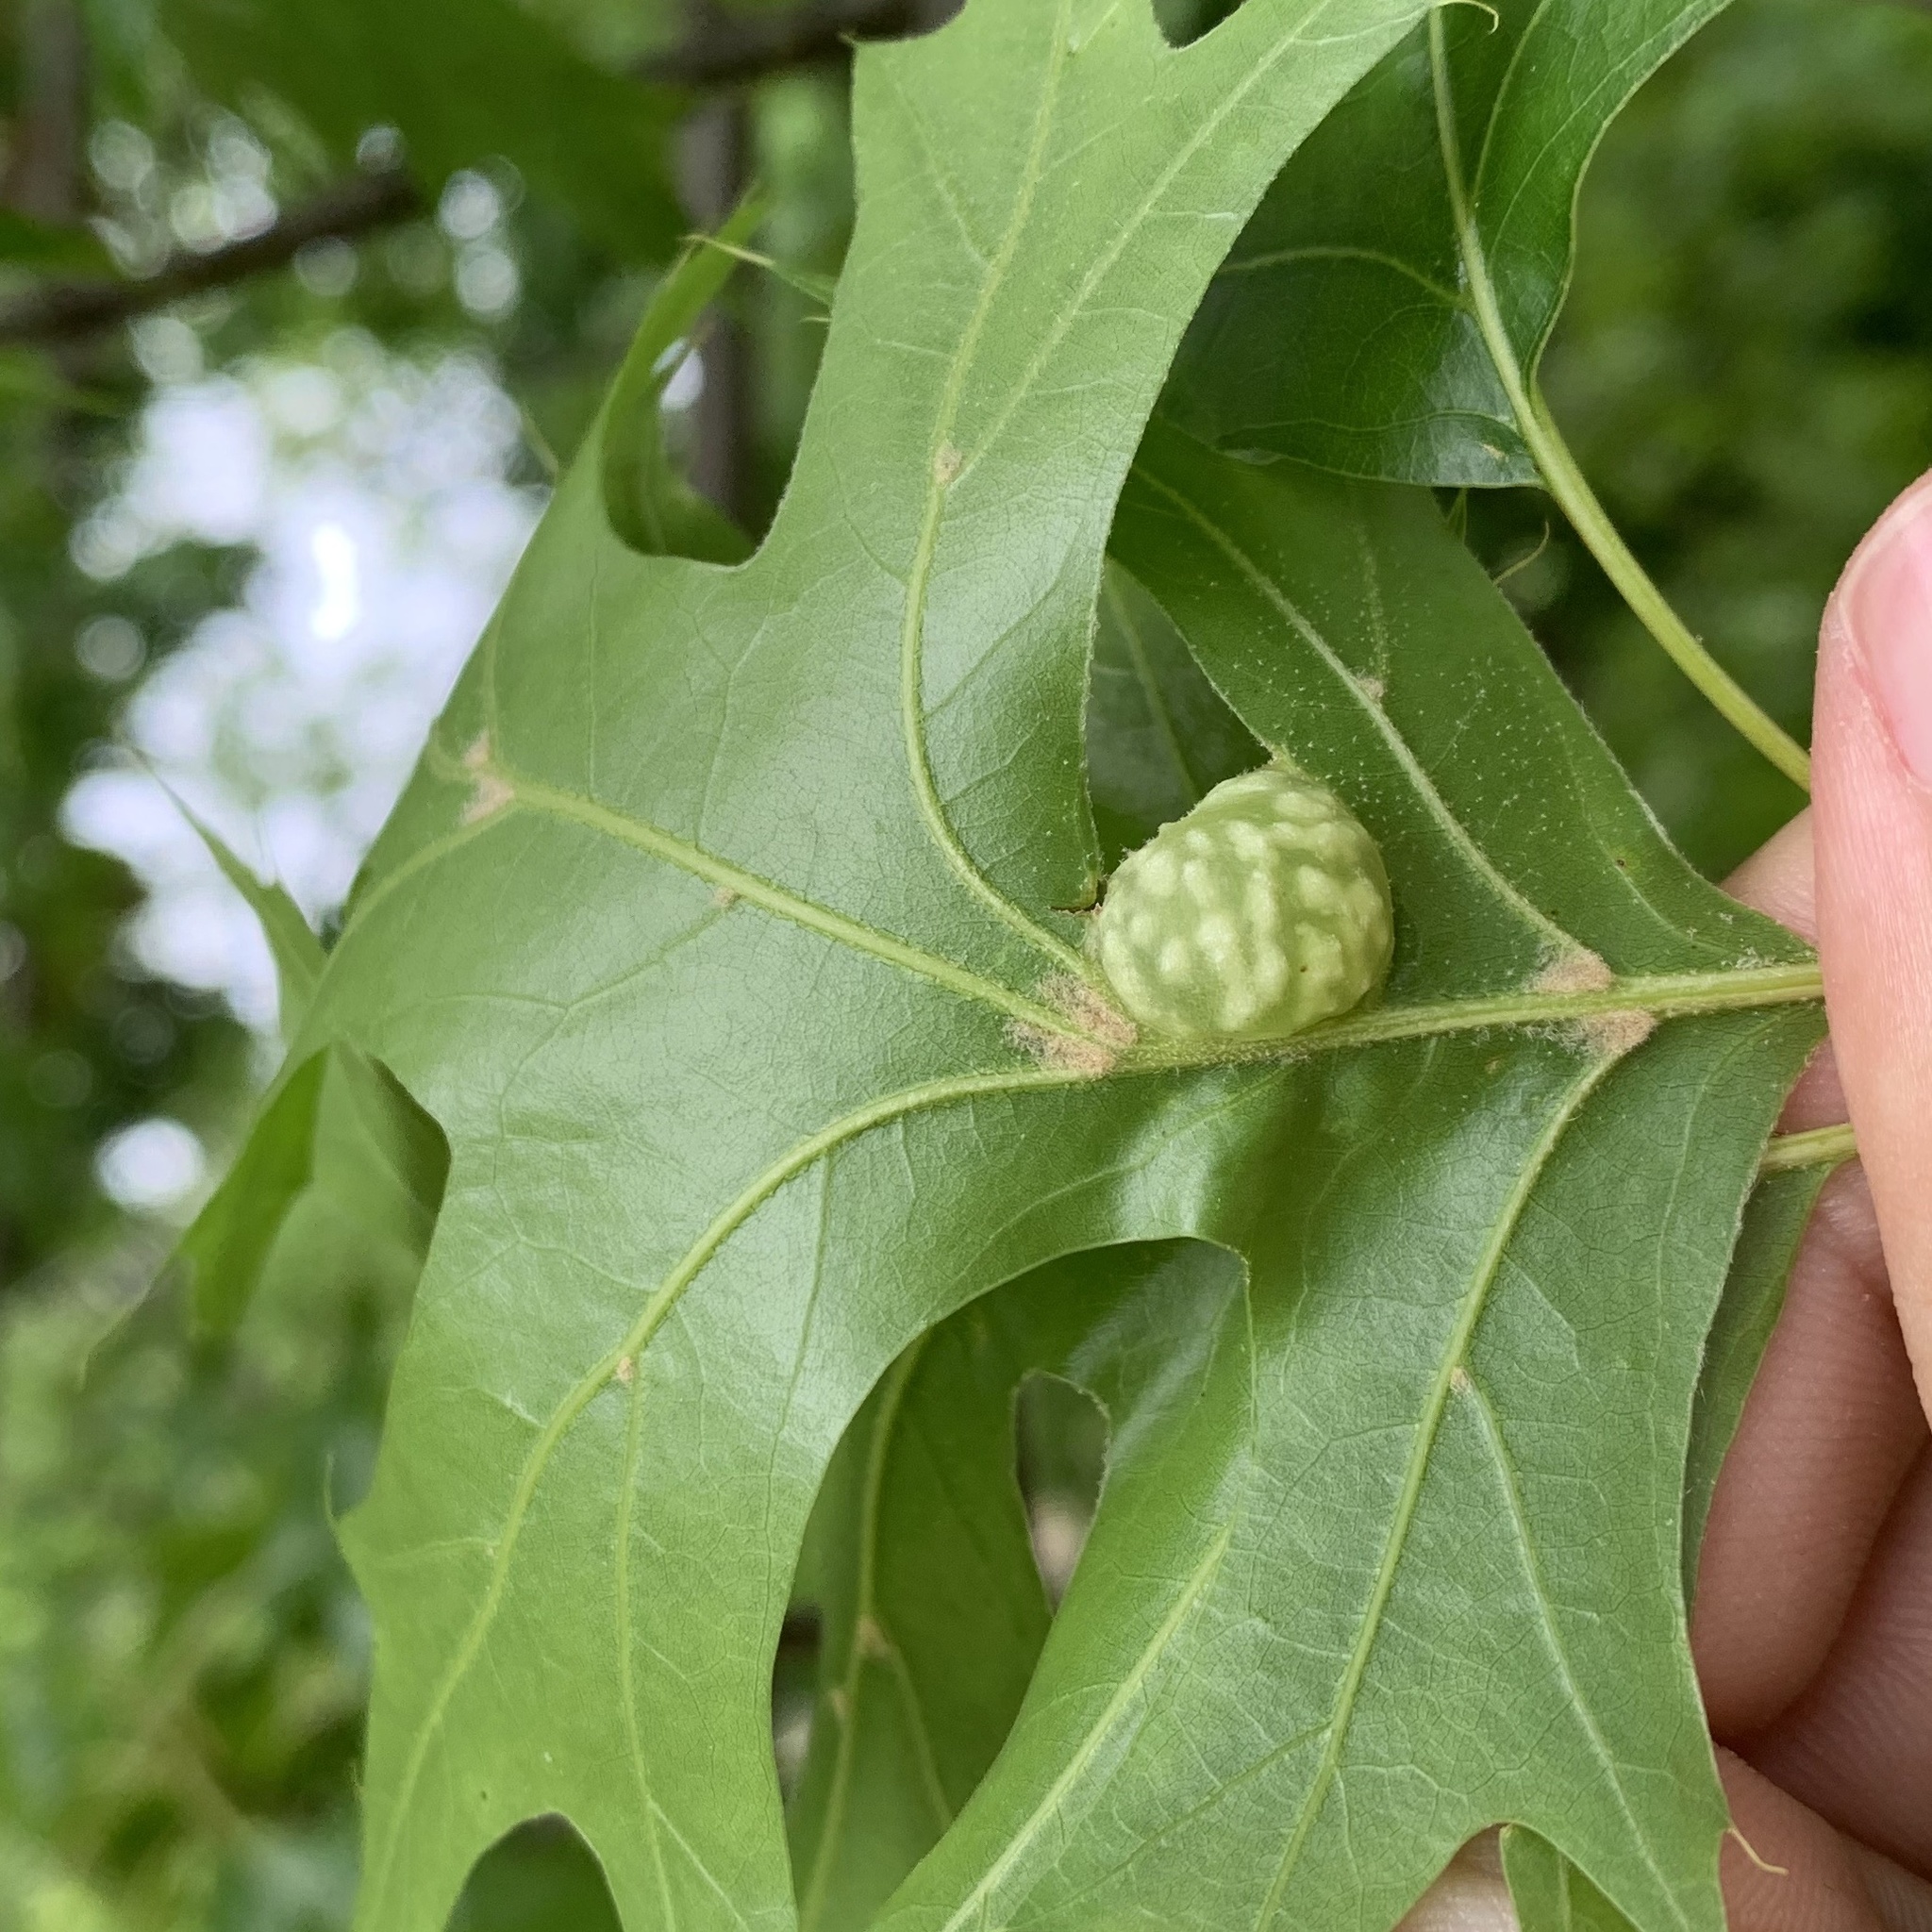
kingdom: Animalia
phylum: Arthropoda
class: Insecta
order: Hymenoptera
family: Cynipidae
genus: Dryocosmus
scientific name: Dryocosmus quercuspalustris
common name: Succulent oak gall wasp
